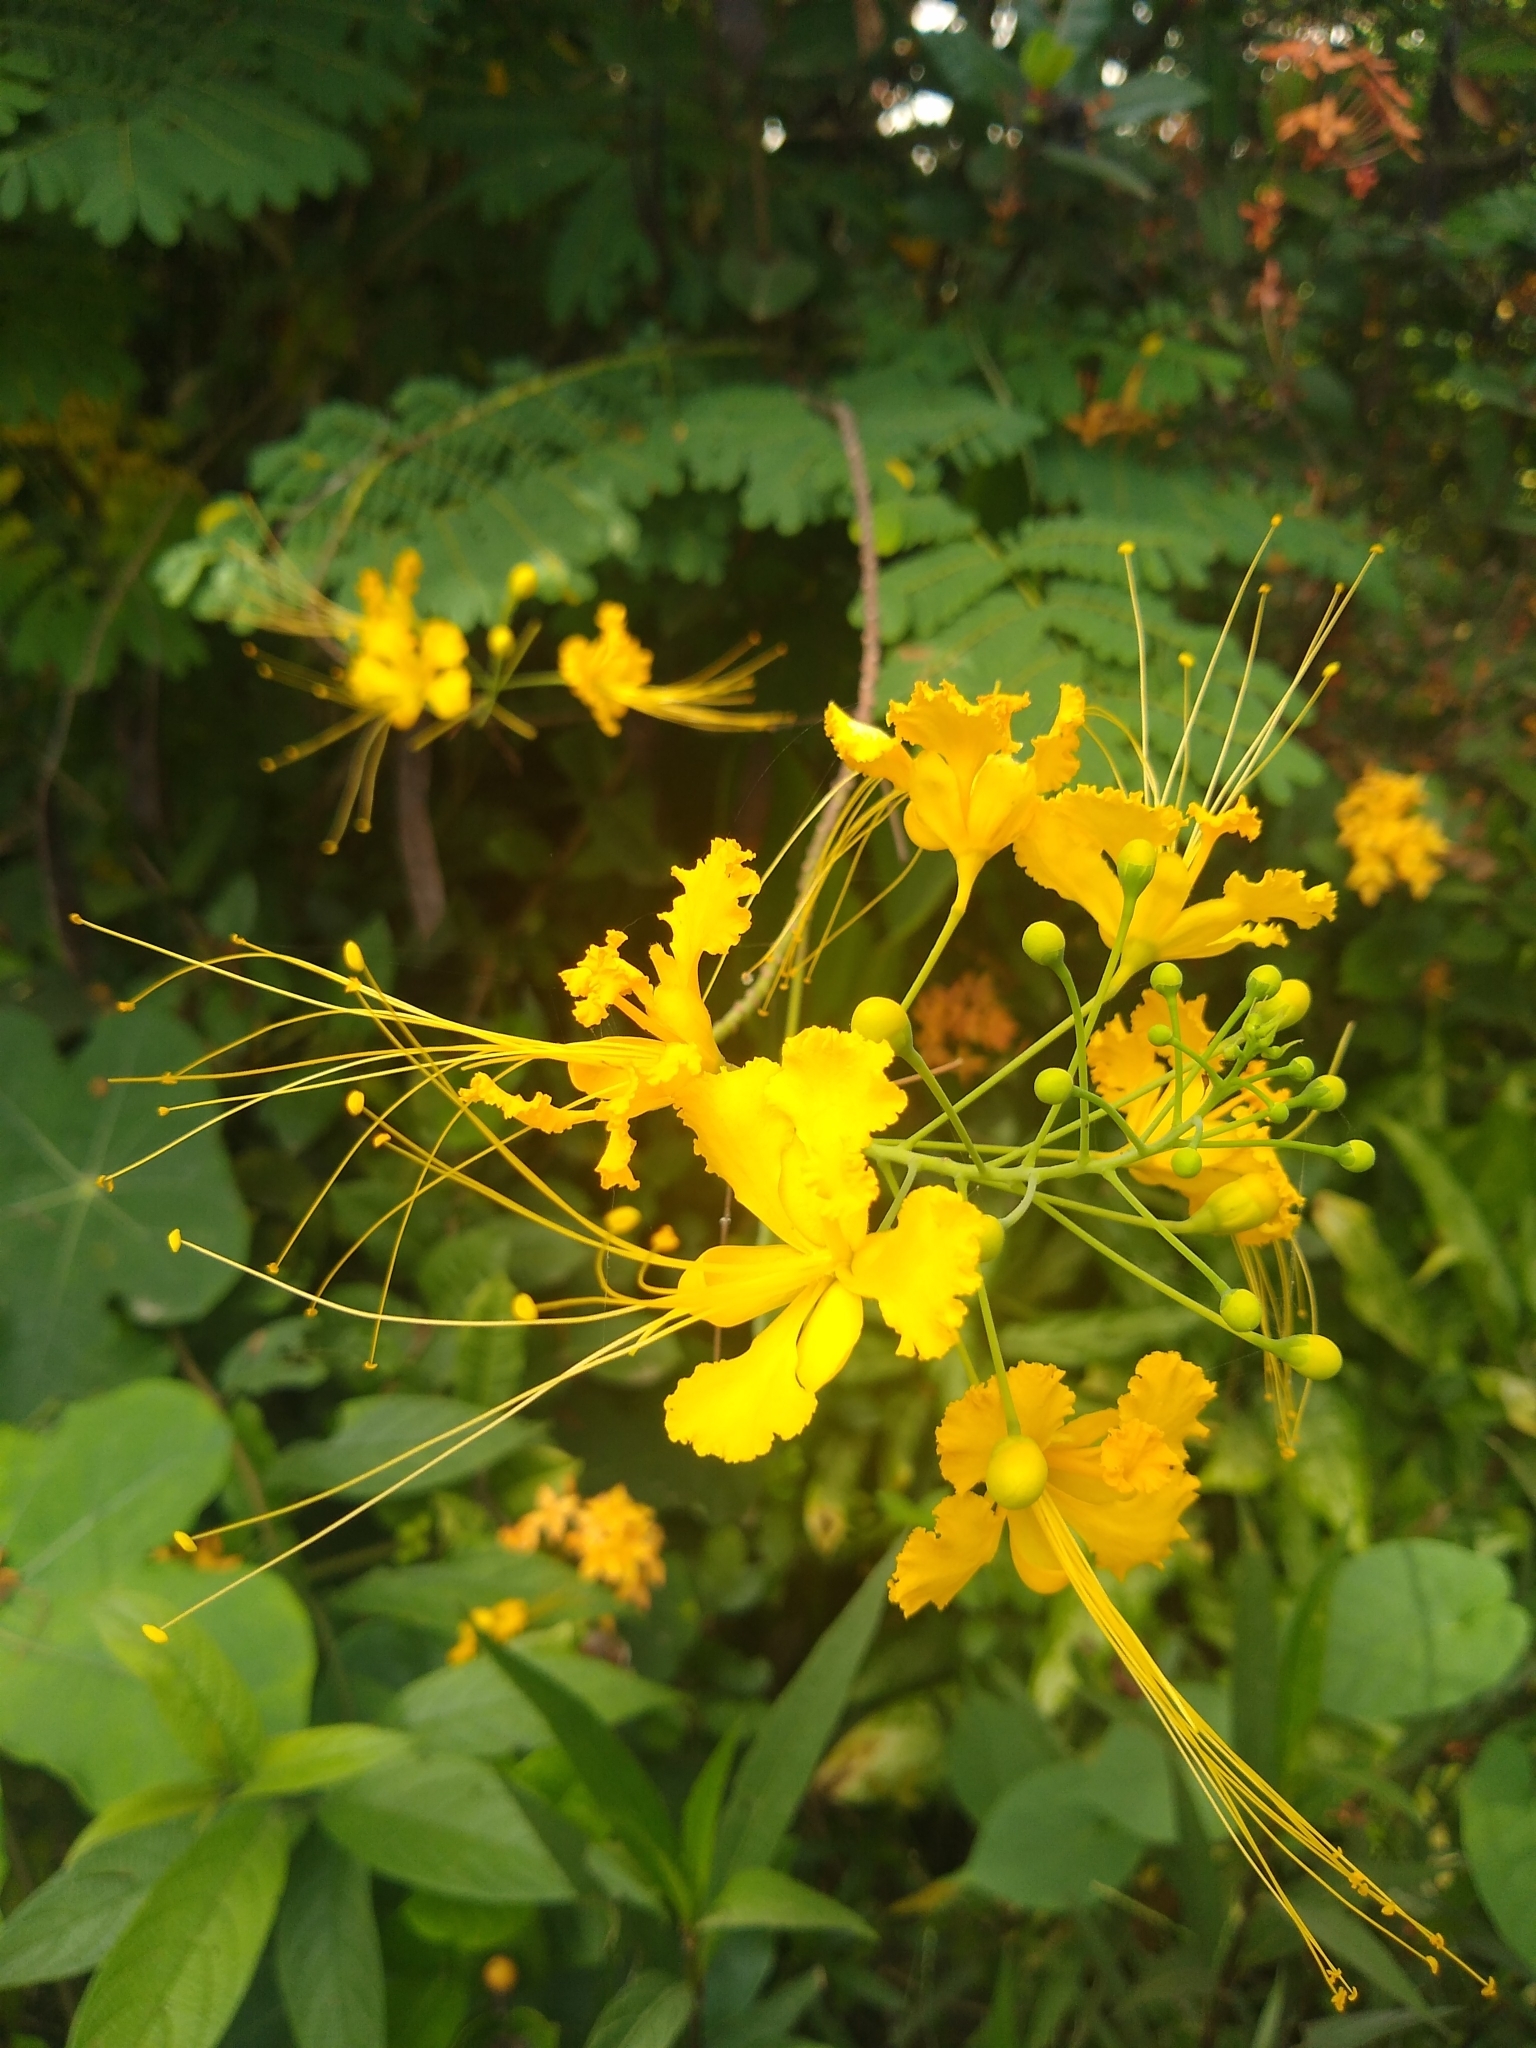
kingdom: Plantae
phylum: Tracheophyta
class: Magnoliopsida
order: Fabales
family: Fabaceae
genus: Caesalpinia
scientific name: Caesalpinia pulcherrima
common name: Pride-of-barbados
